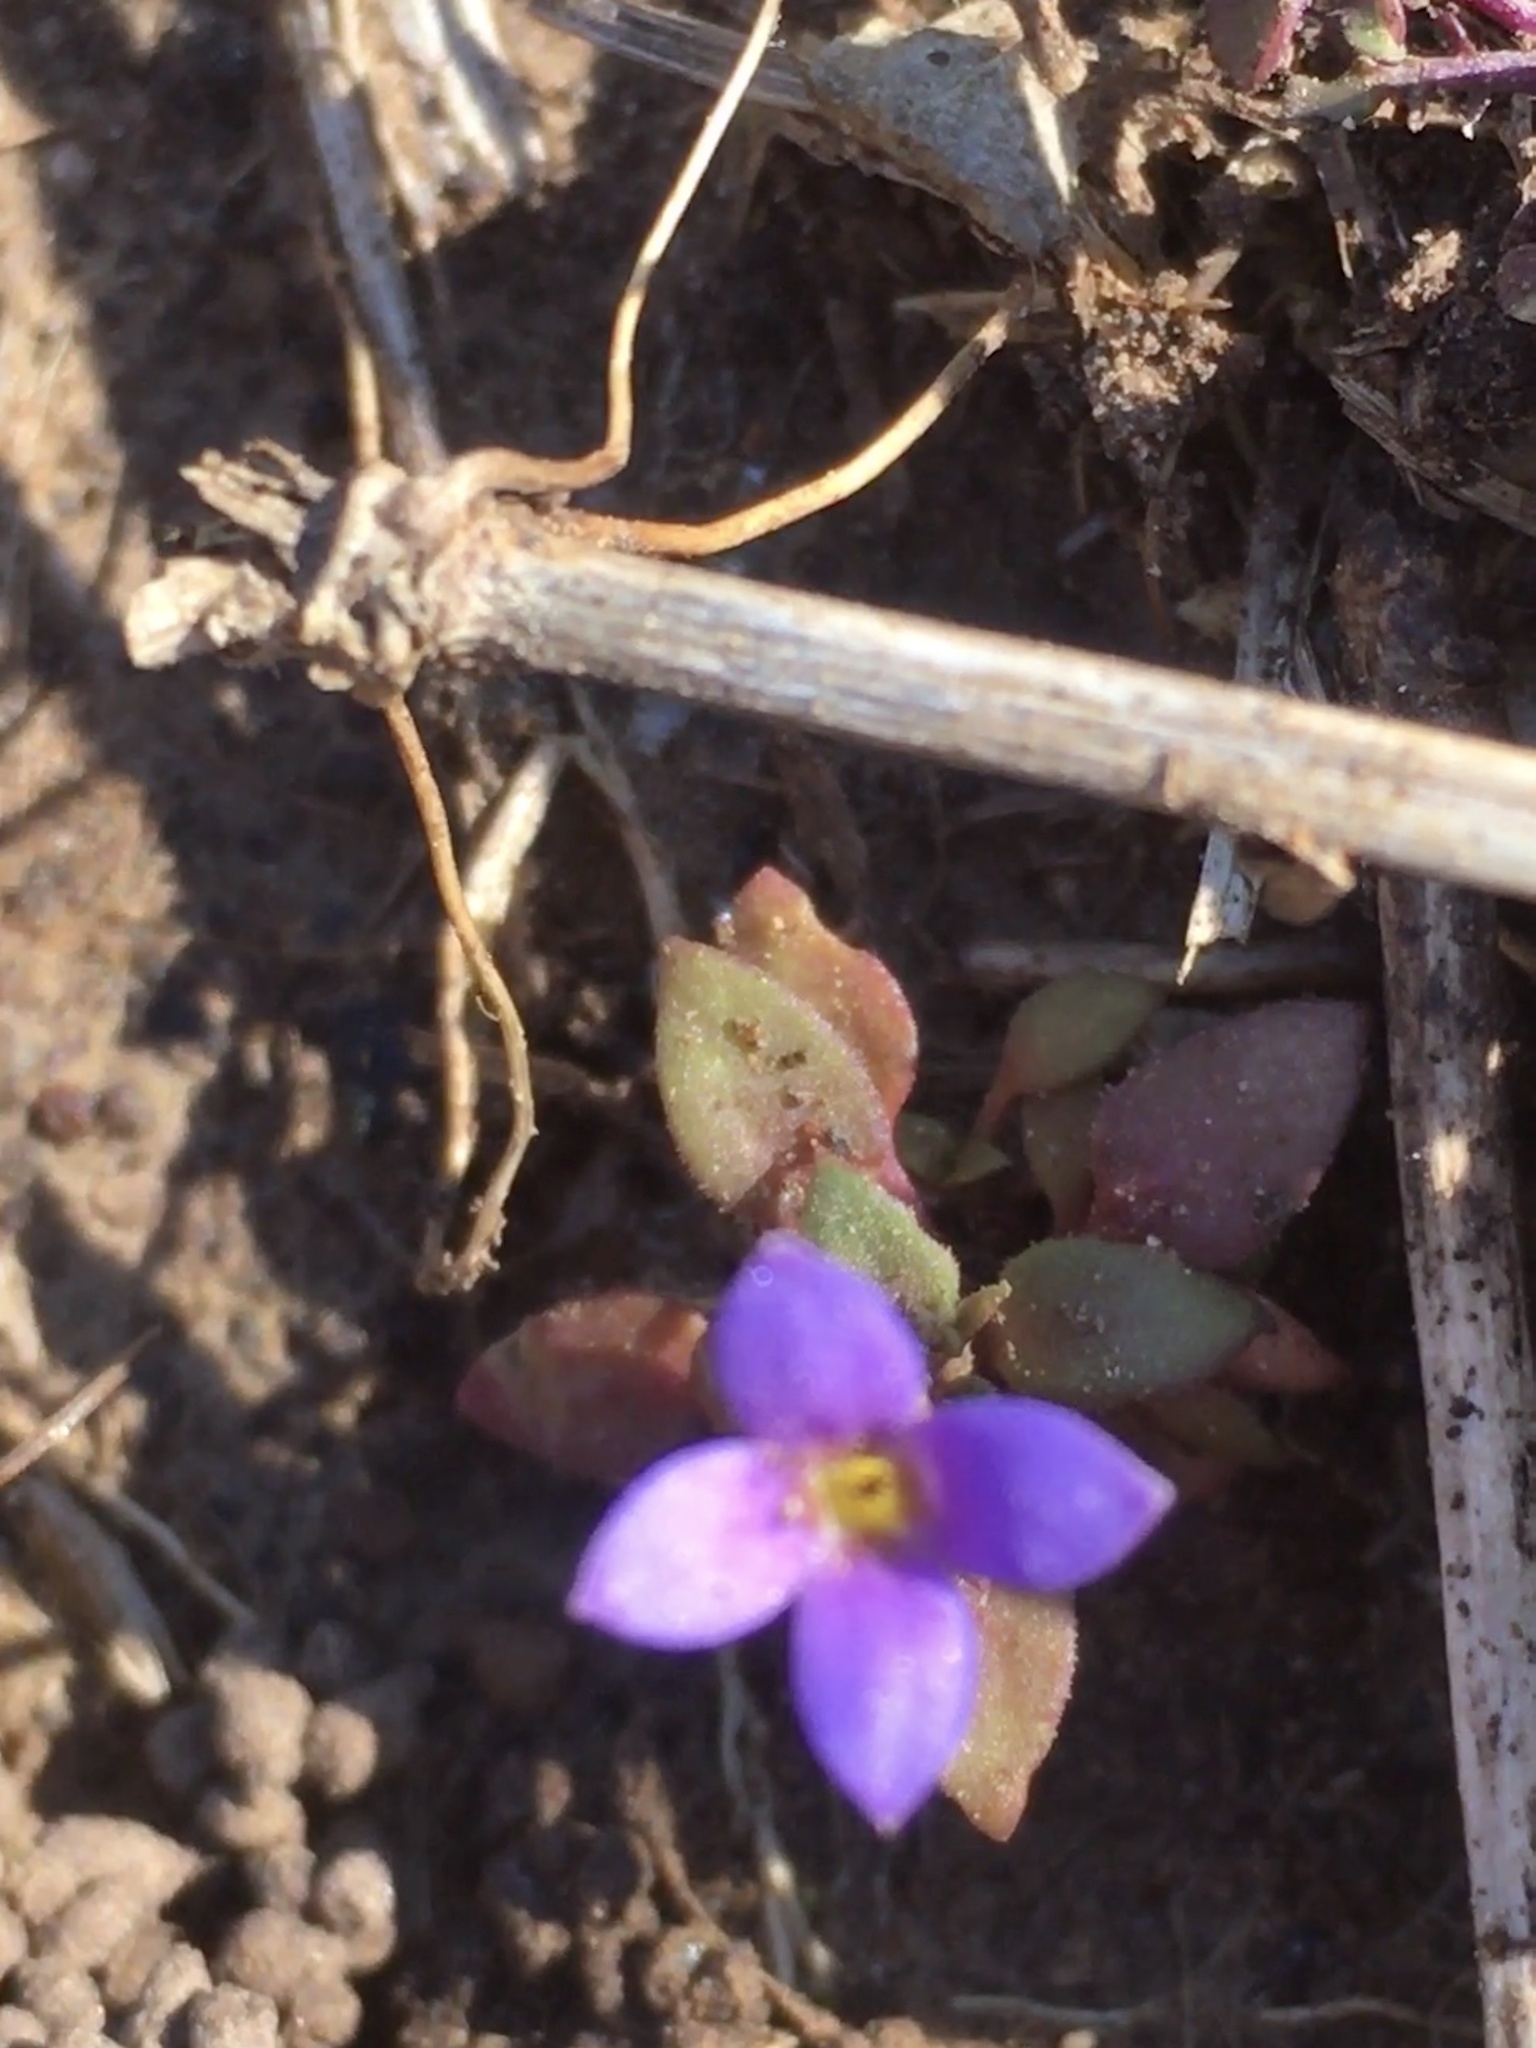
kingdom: Plantae
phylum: Tracheophyta
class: Magnoliopsida
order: Gentianales
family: Rubiaceae
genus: Houstonia
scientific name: Houstonia pusilla
